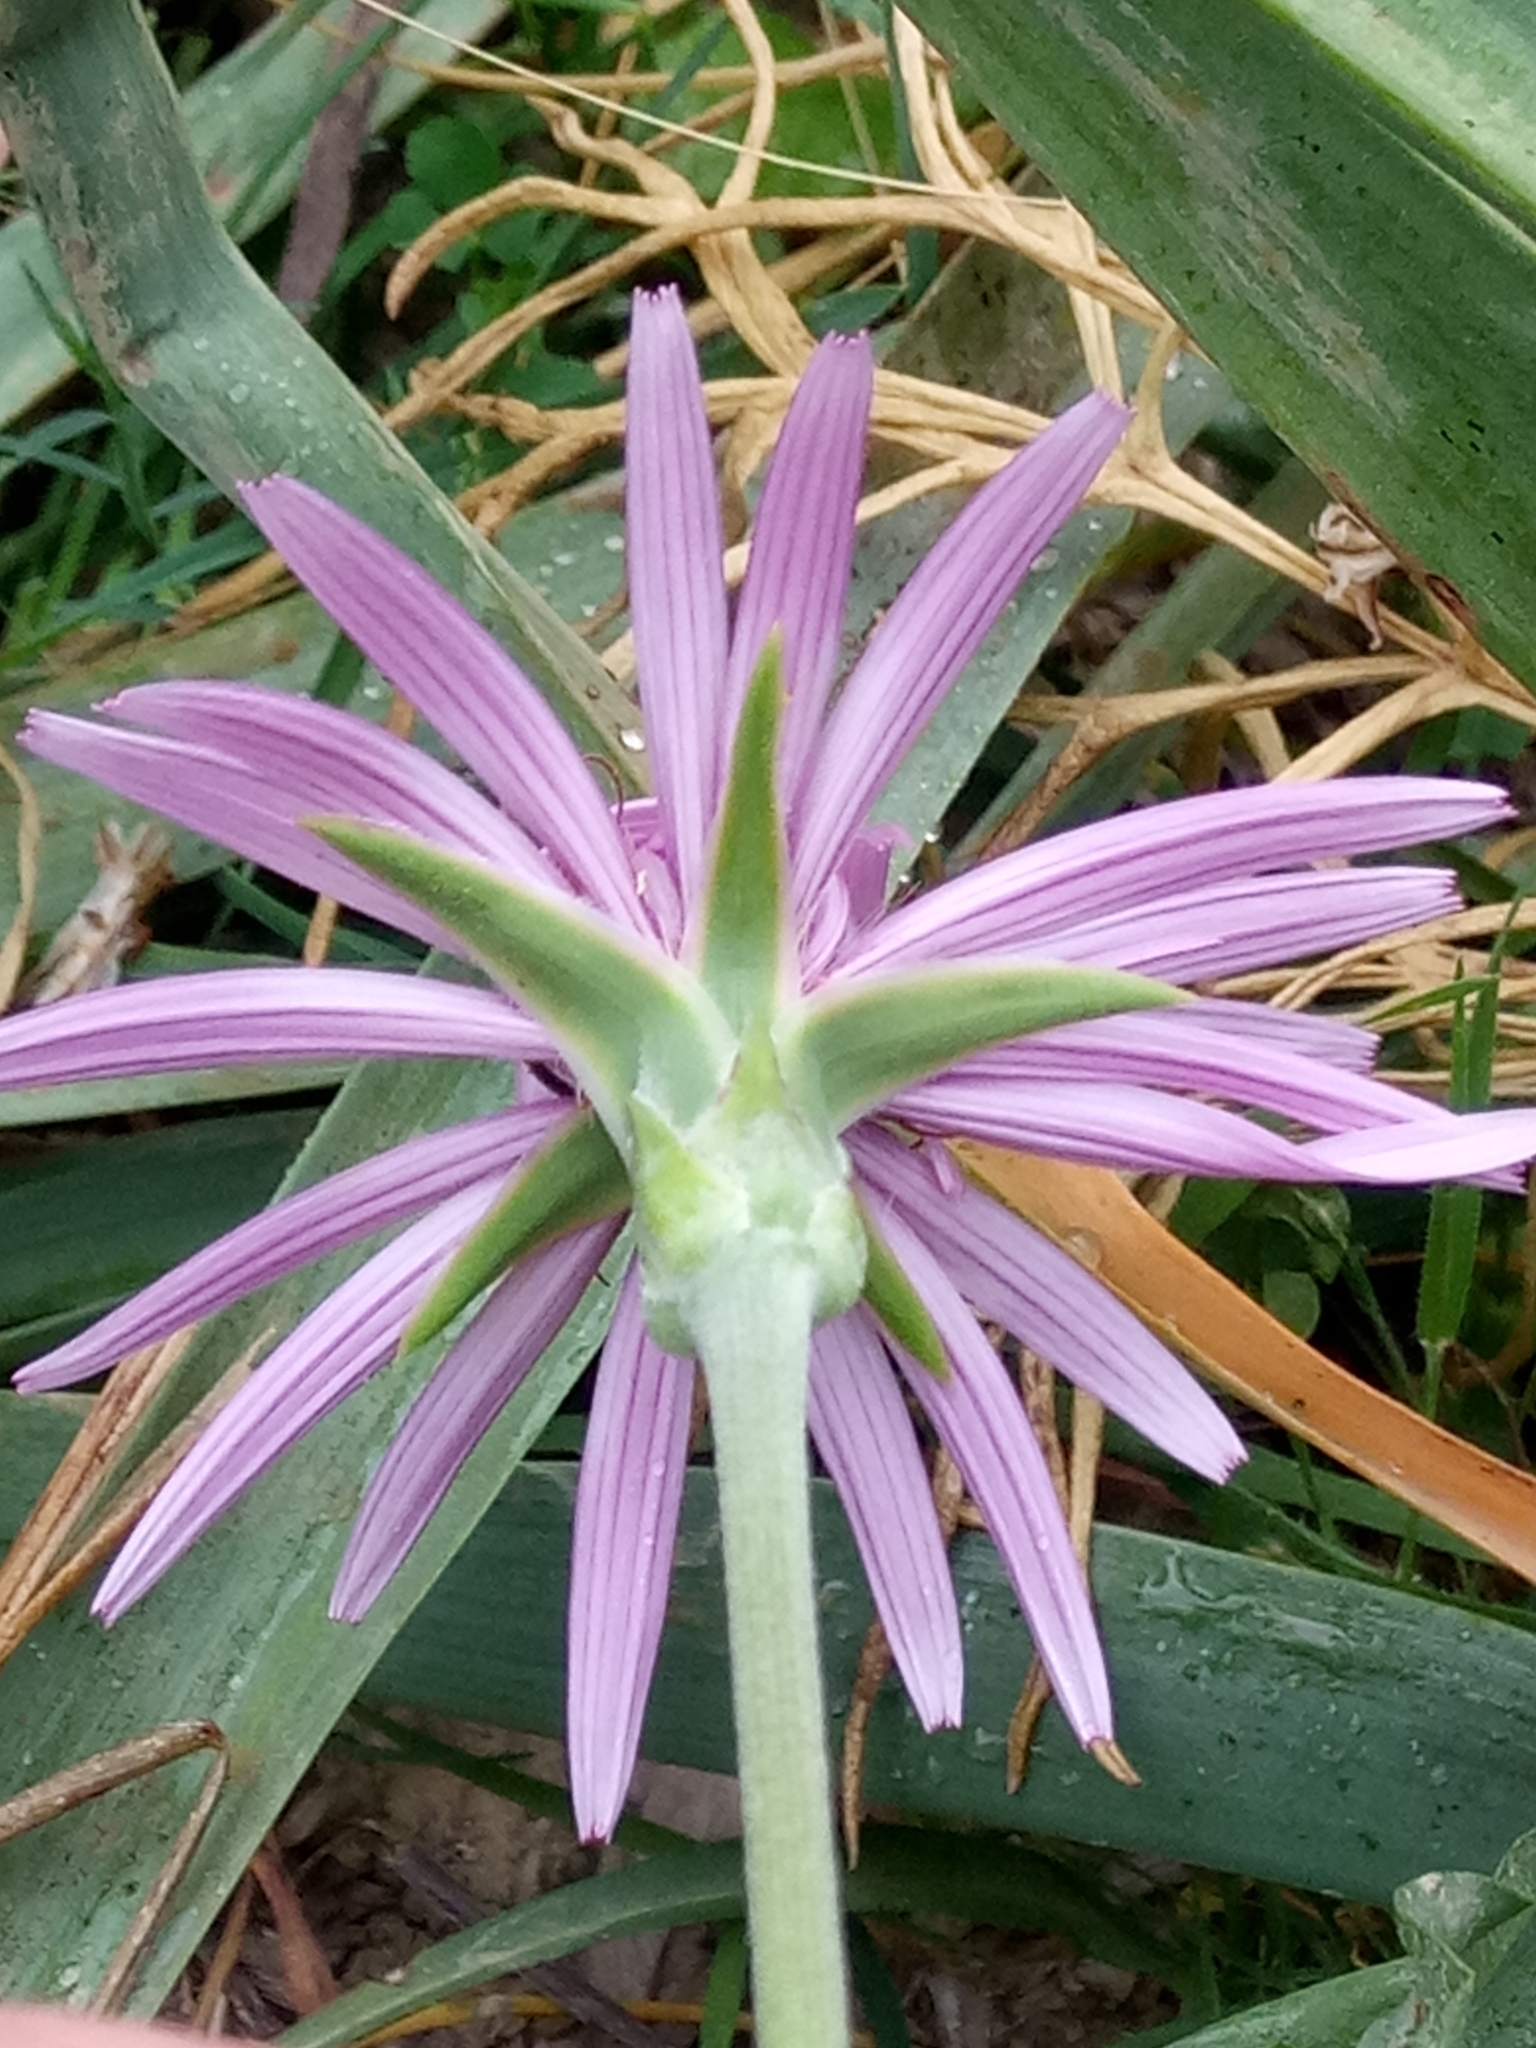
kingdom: Plantae
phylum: Tracheophyta
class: Magnoliopsida
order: Asterales
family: Asteraceae
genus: Pseudopodospermum
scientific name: Pseudopodospermum undulatum
